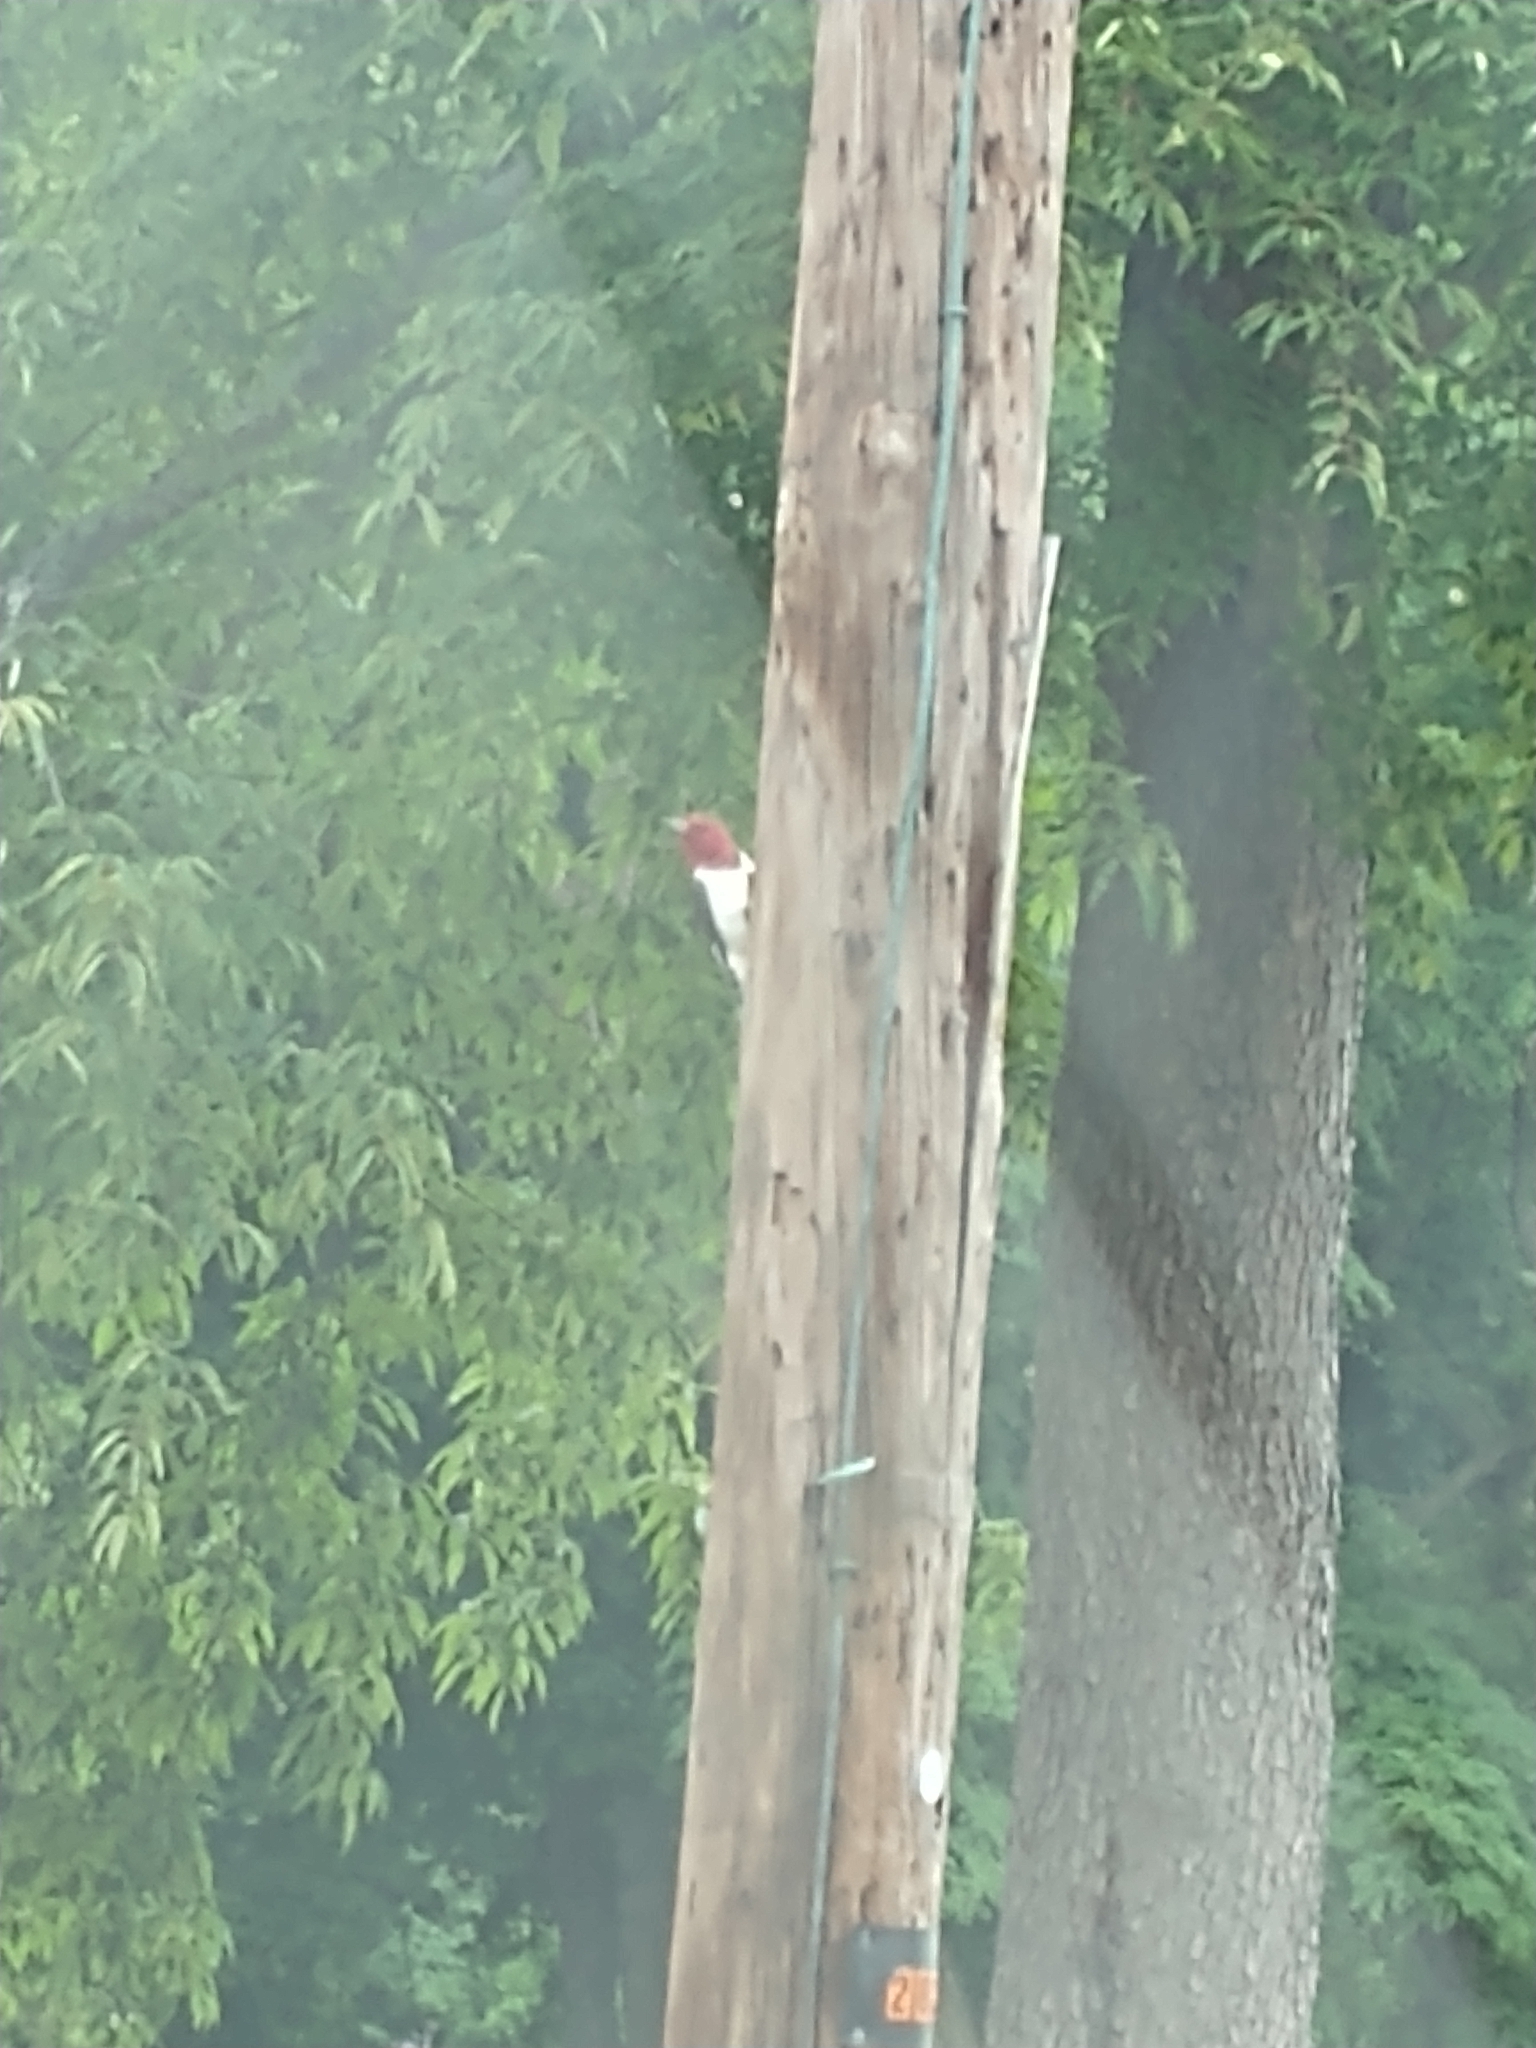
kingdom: Animalia
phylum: Chordata
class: Aves
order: Piciformes
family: Picidae
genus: Melanerpes
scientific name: Melanerpes erythrocephalus
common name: Red-headed woodpecker
